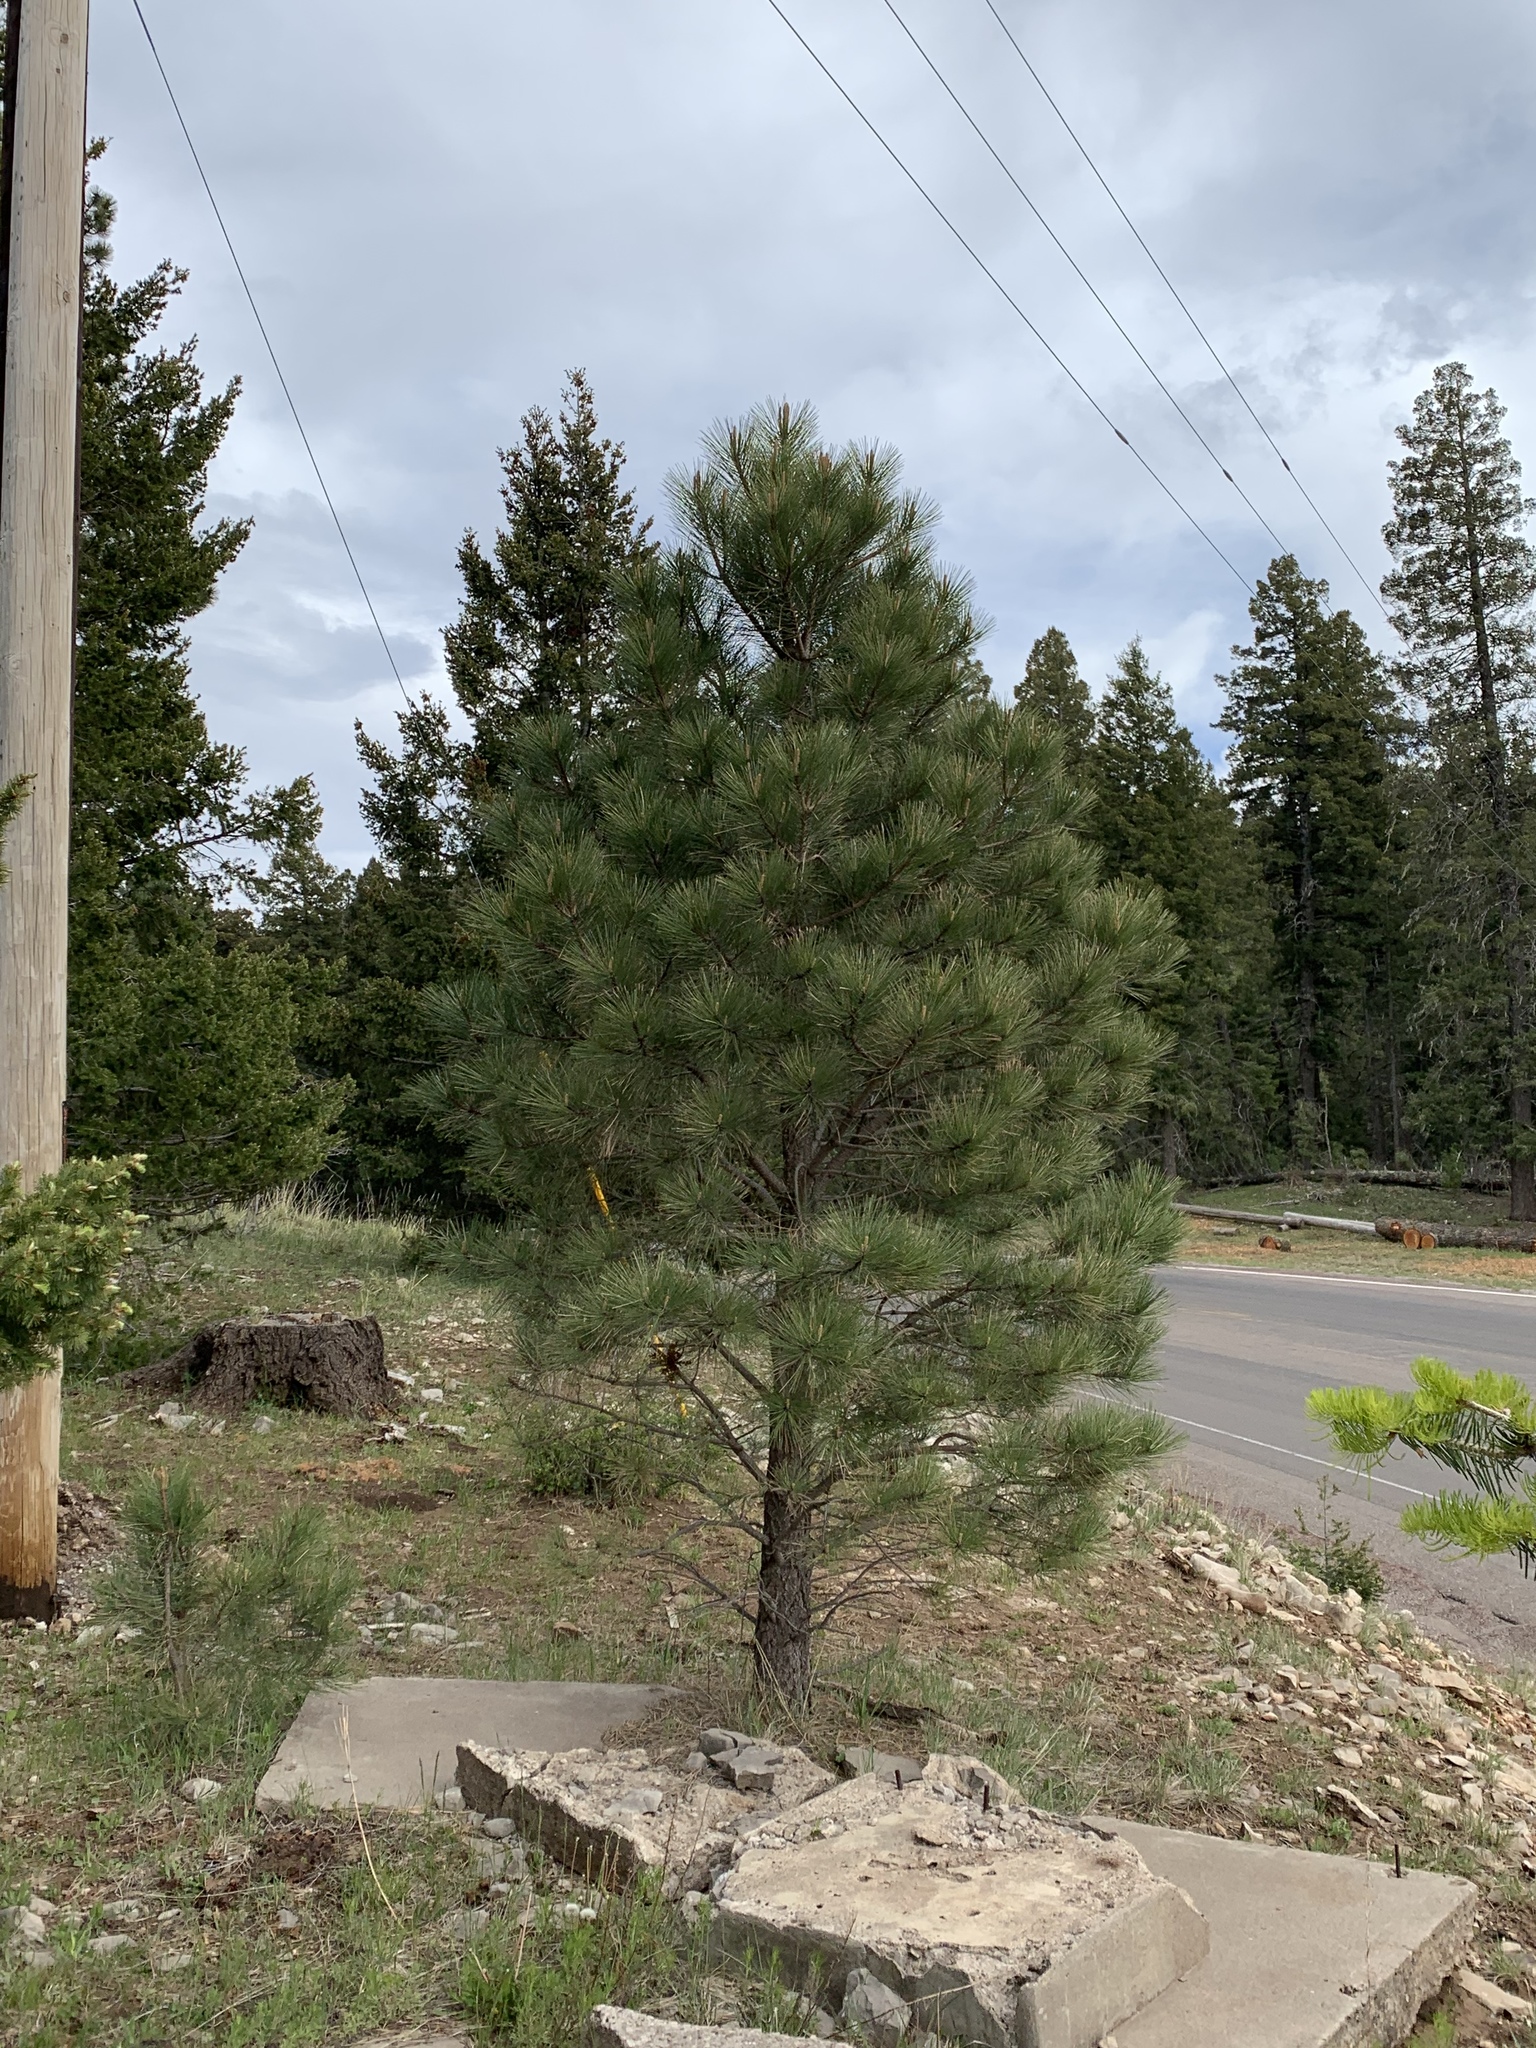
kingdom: Plantae
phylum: Tracheophyta
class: Pinopsida
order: Pinales
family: Pinaceae
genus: Pinus
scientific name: Pinus ponderosa
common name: Western yellow-pine
